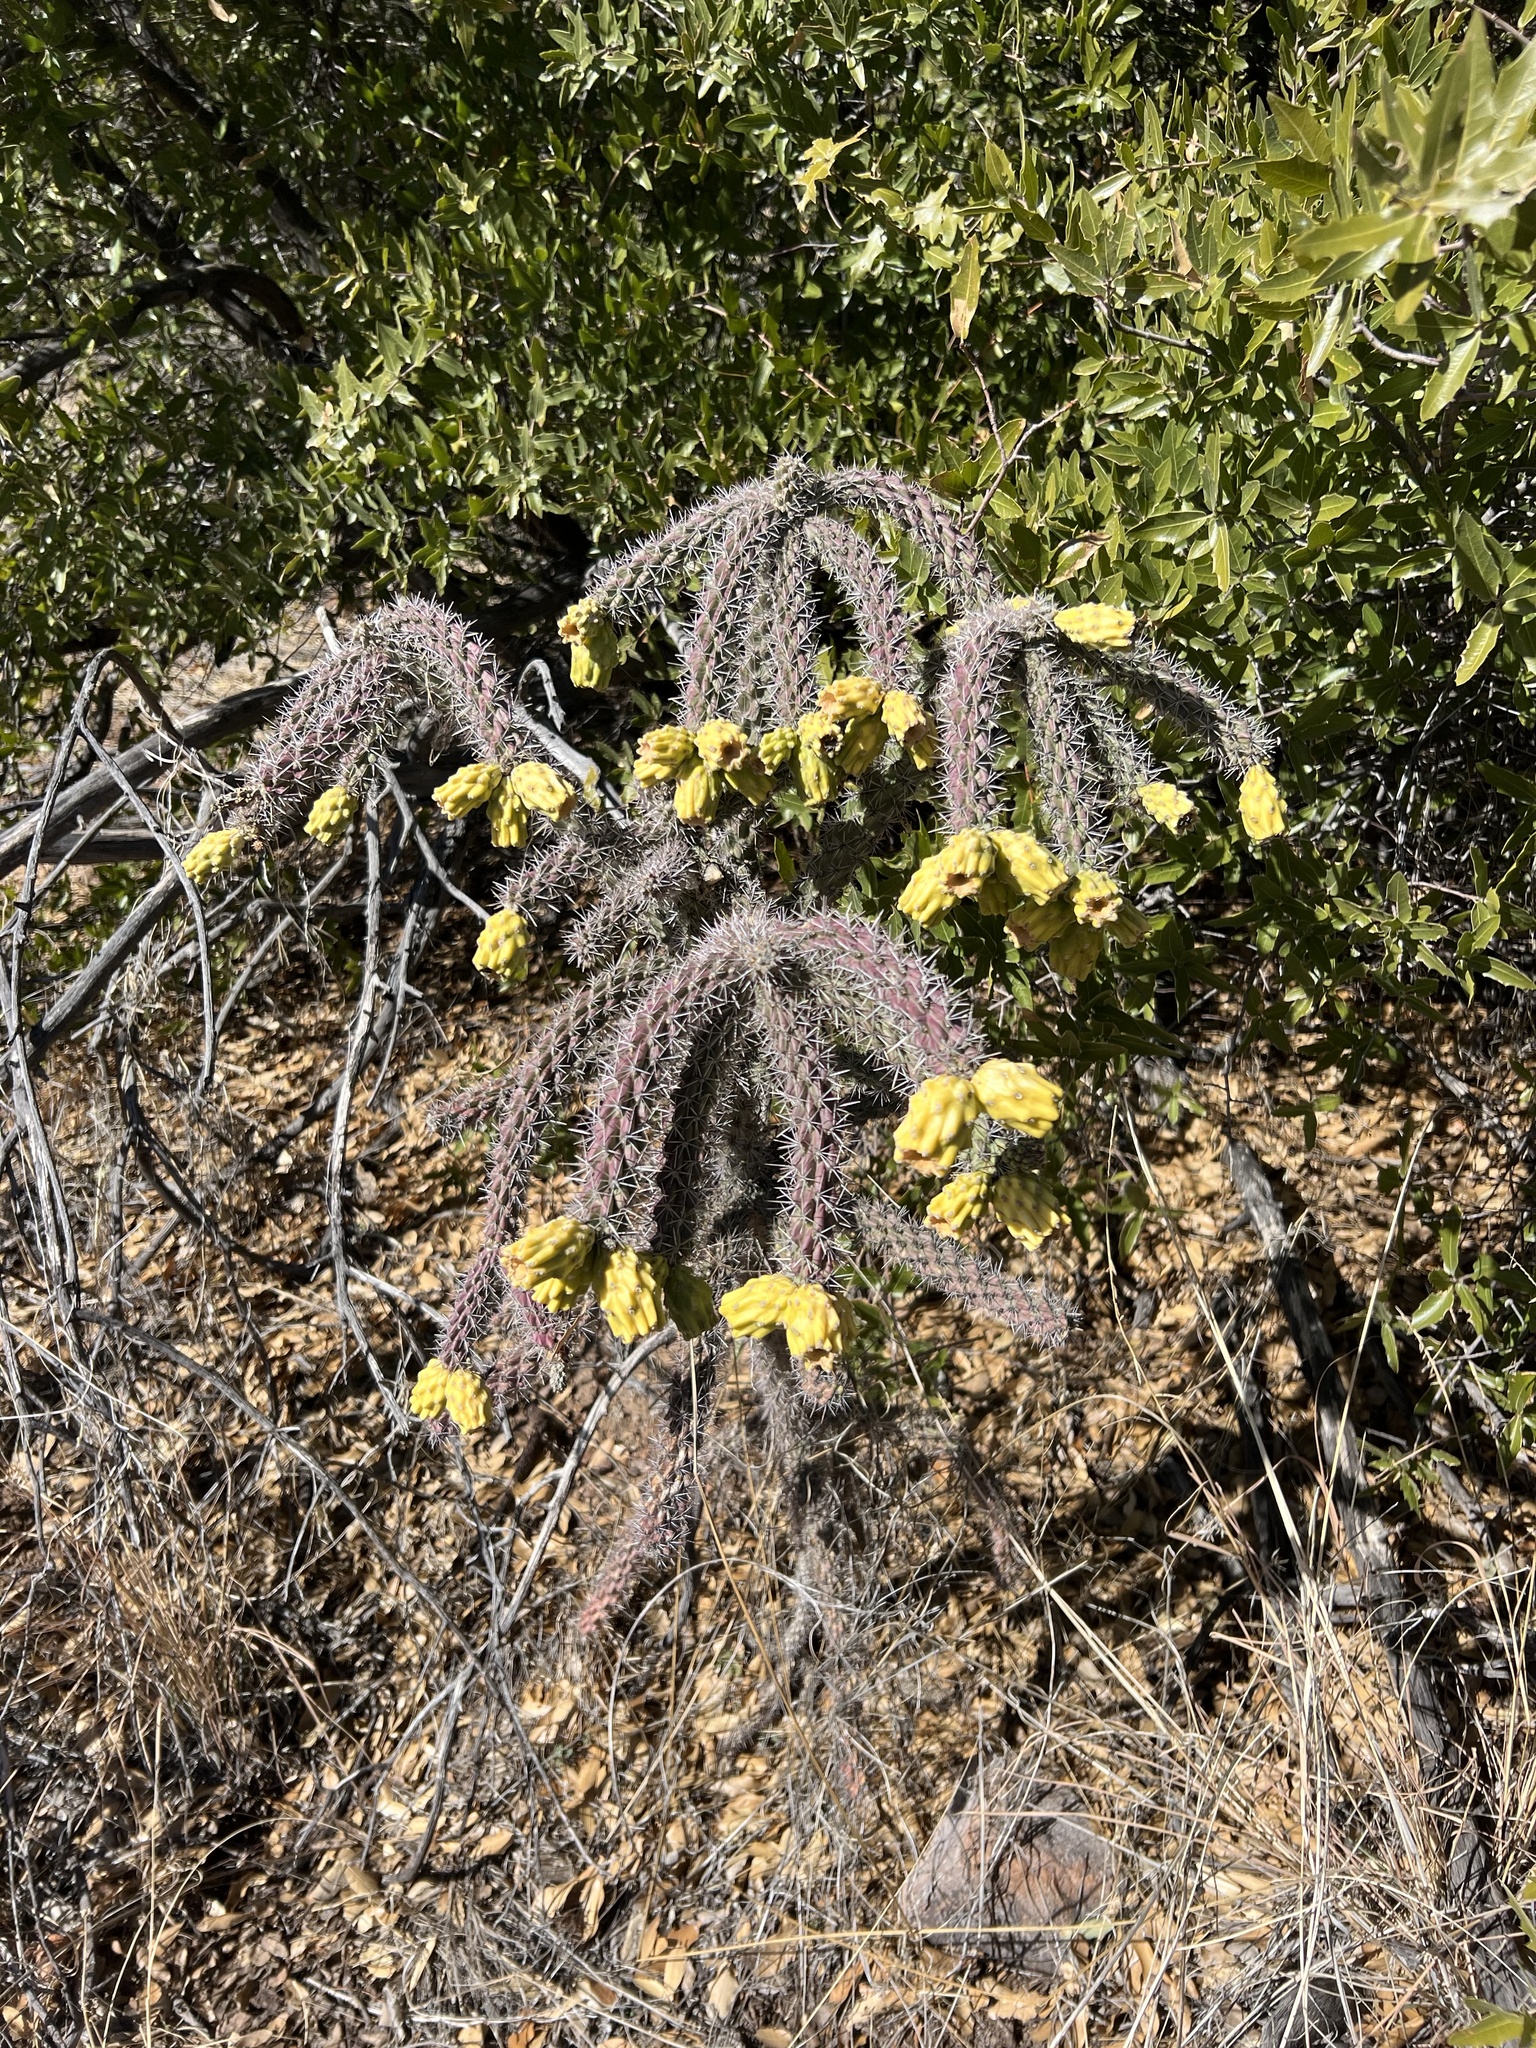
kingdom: Plantae
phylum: Tracheophyta
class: Magnoliopsida
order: Caryophyllales
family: Cactaceae
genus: Cylindropuntia
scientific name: Cylindropuntia imbricata
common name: Candelabrum cactus
